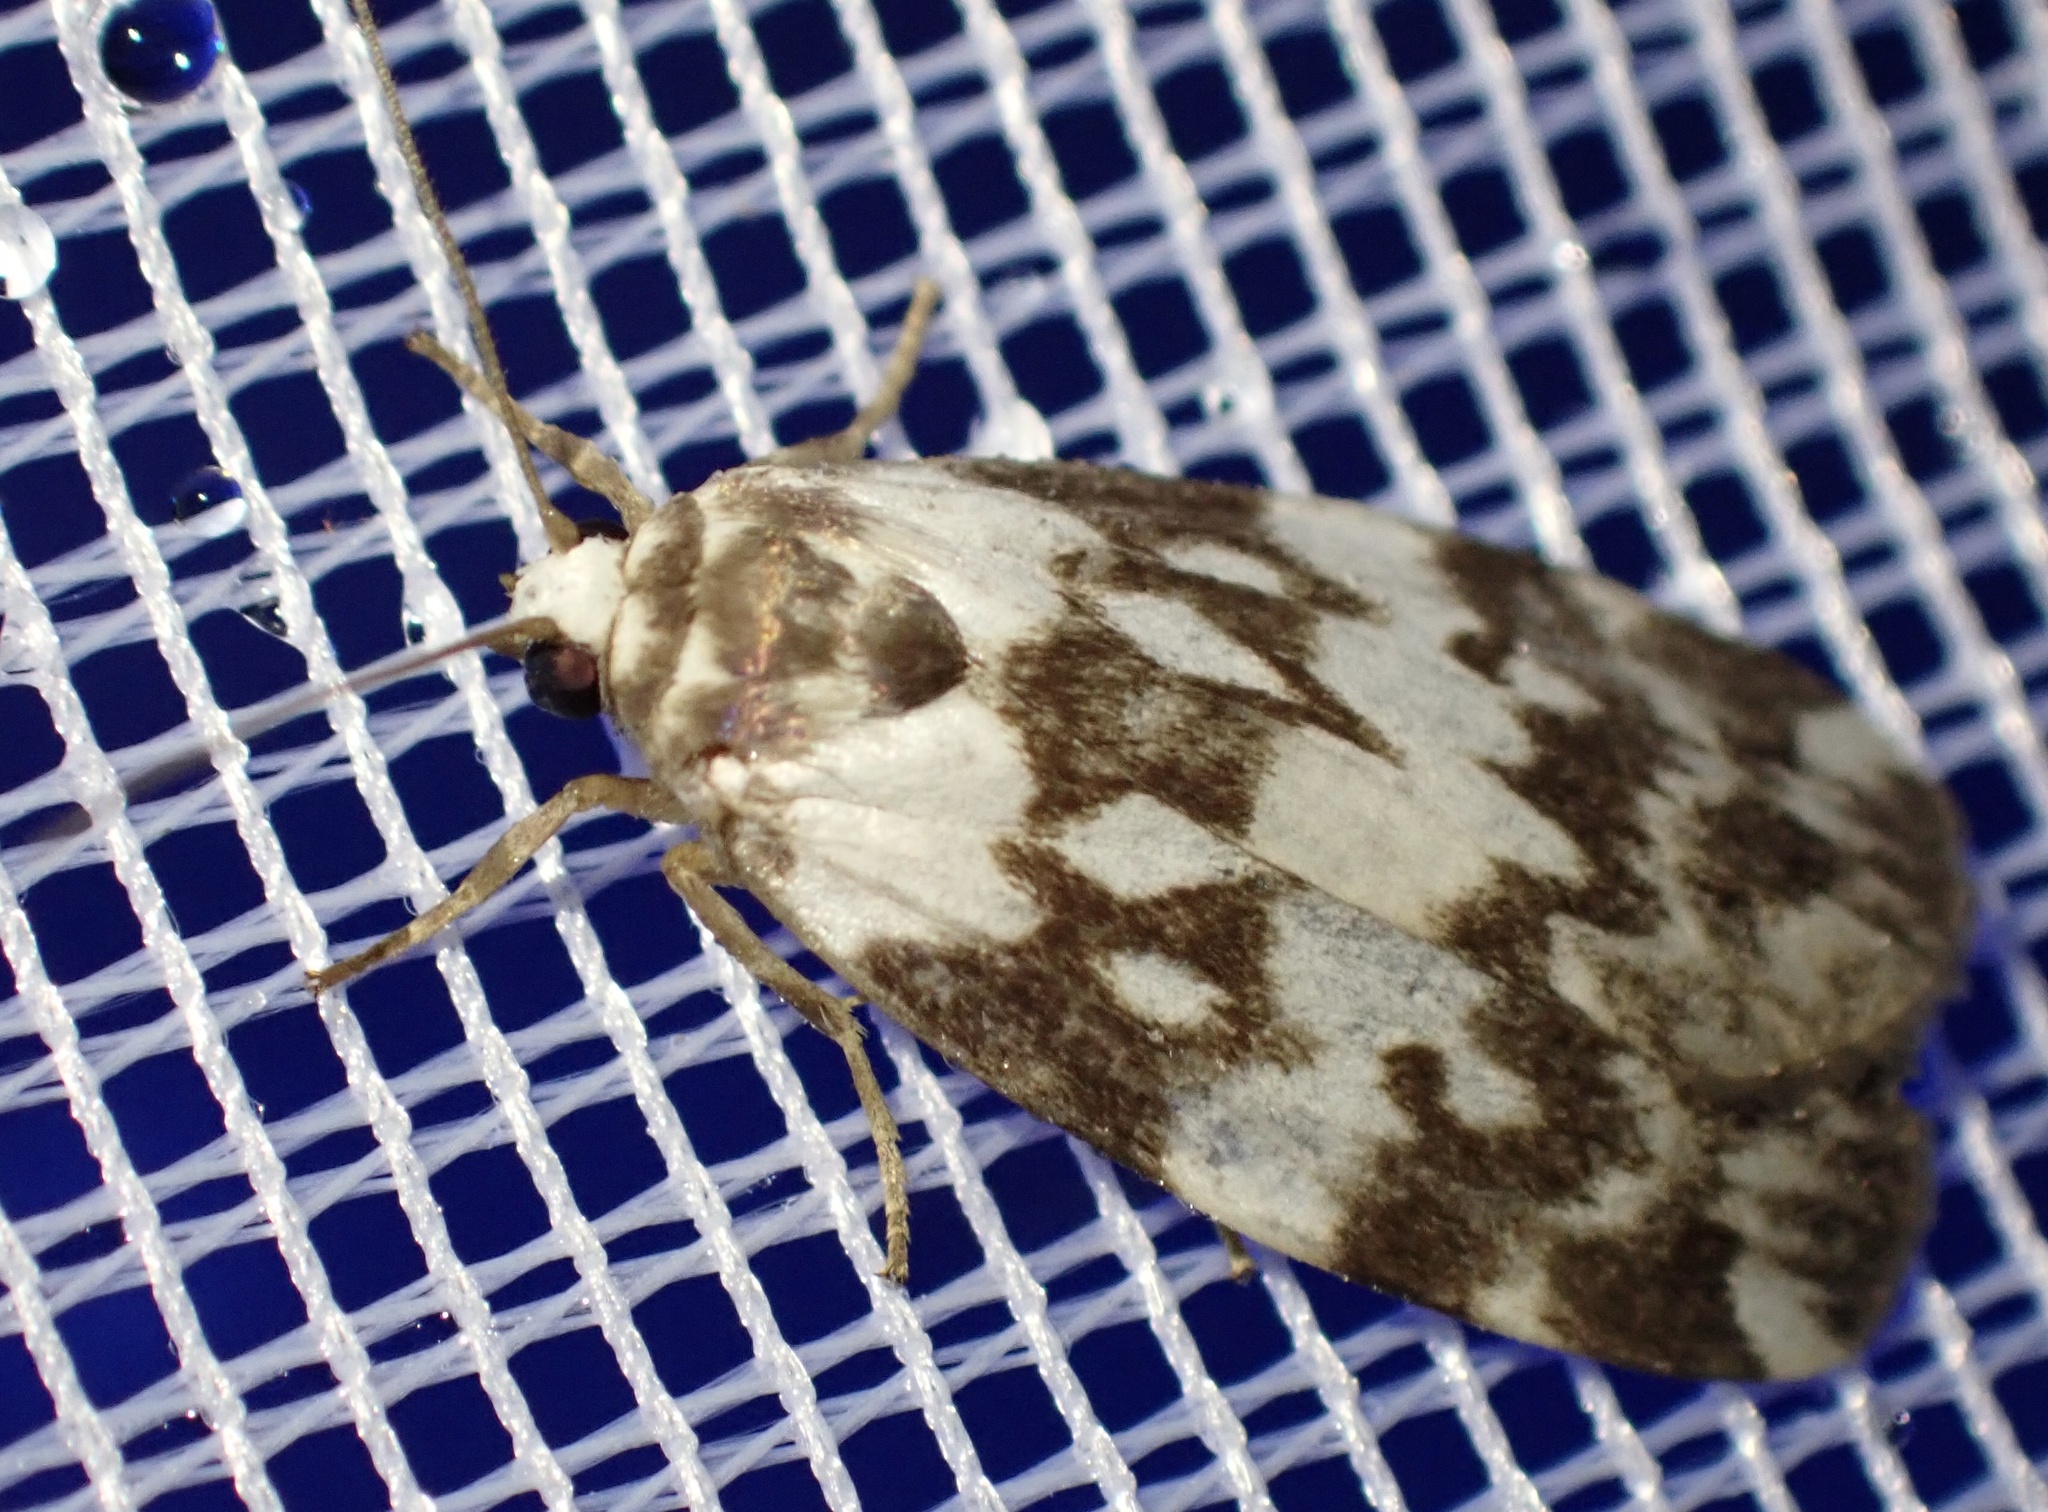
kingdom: Animalia
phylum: Arthropoda
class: Insecta
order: Lepidoptera
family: Erebidae
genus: Cyana
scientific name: Cyana inusitata
